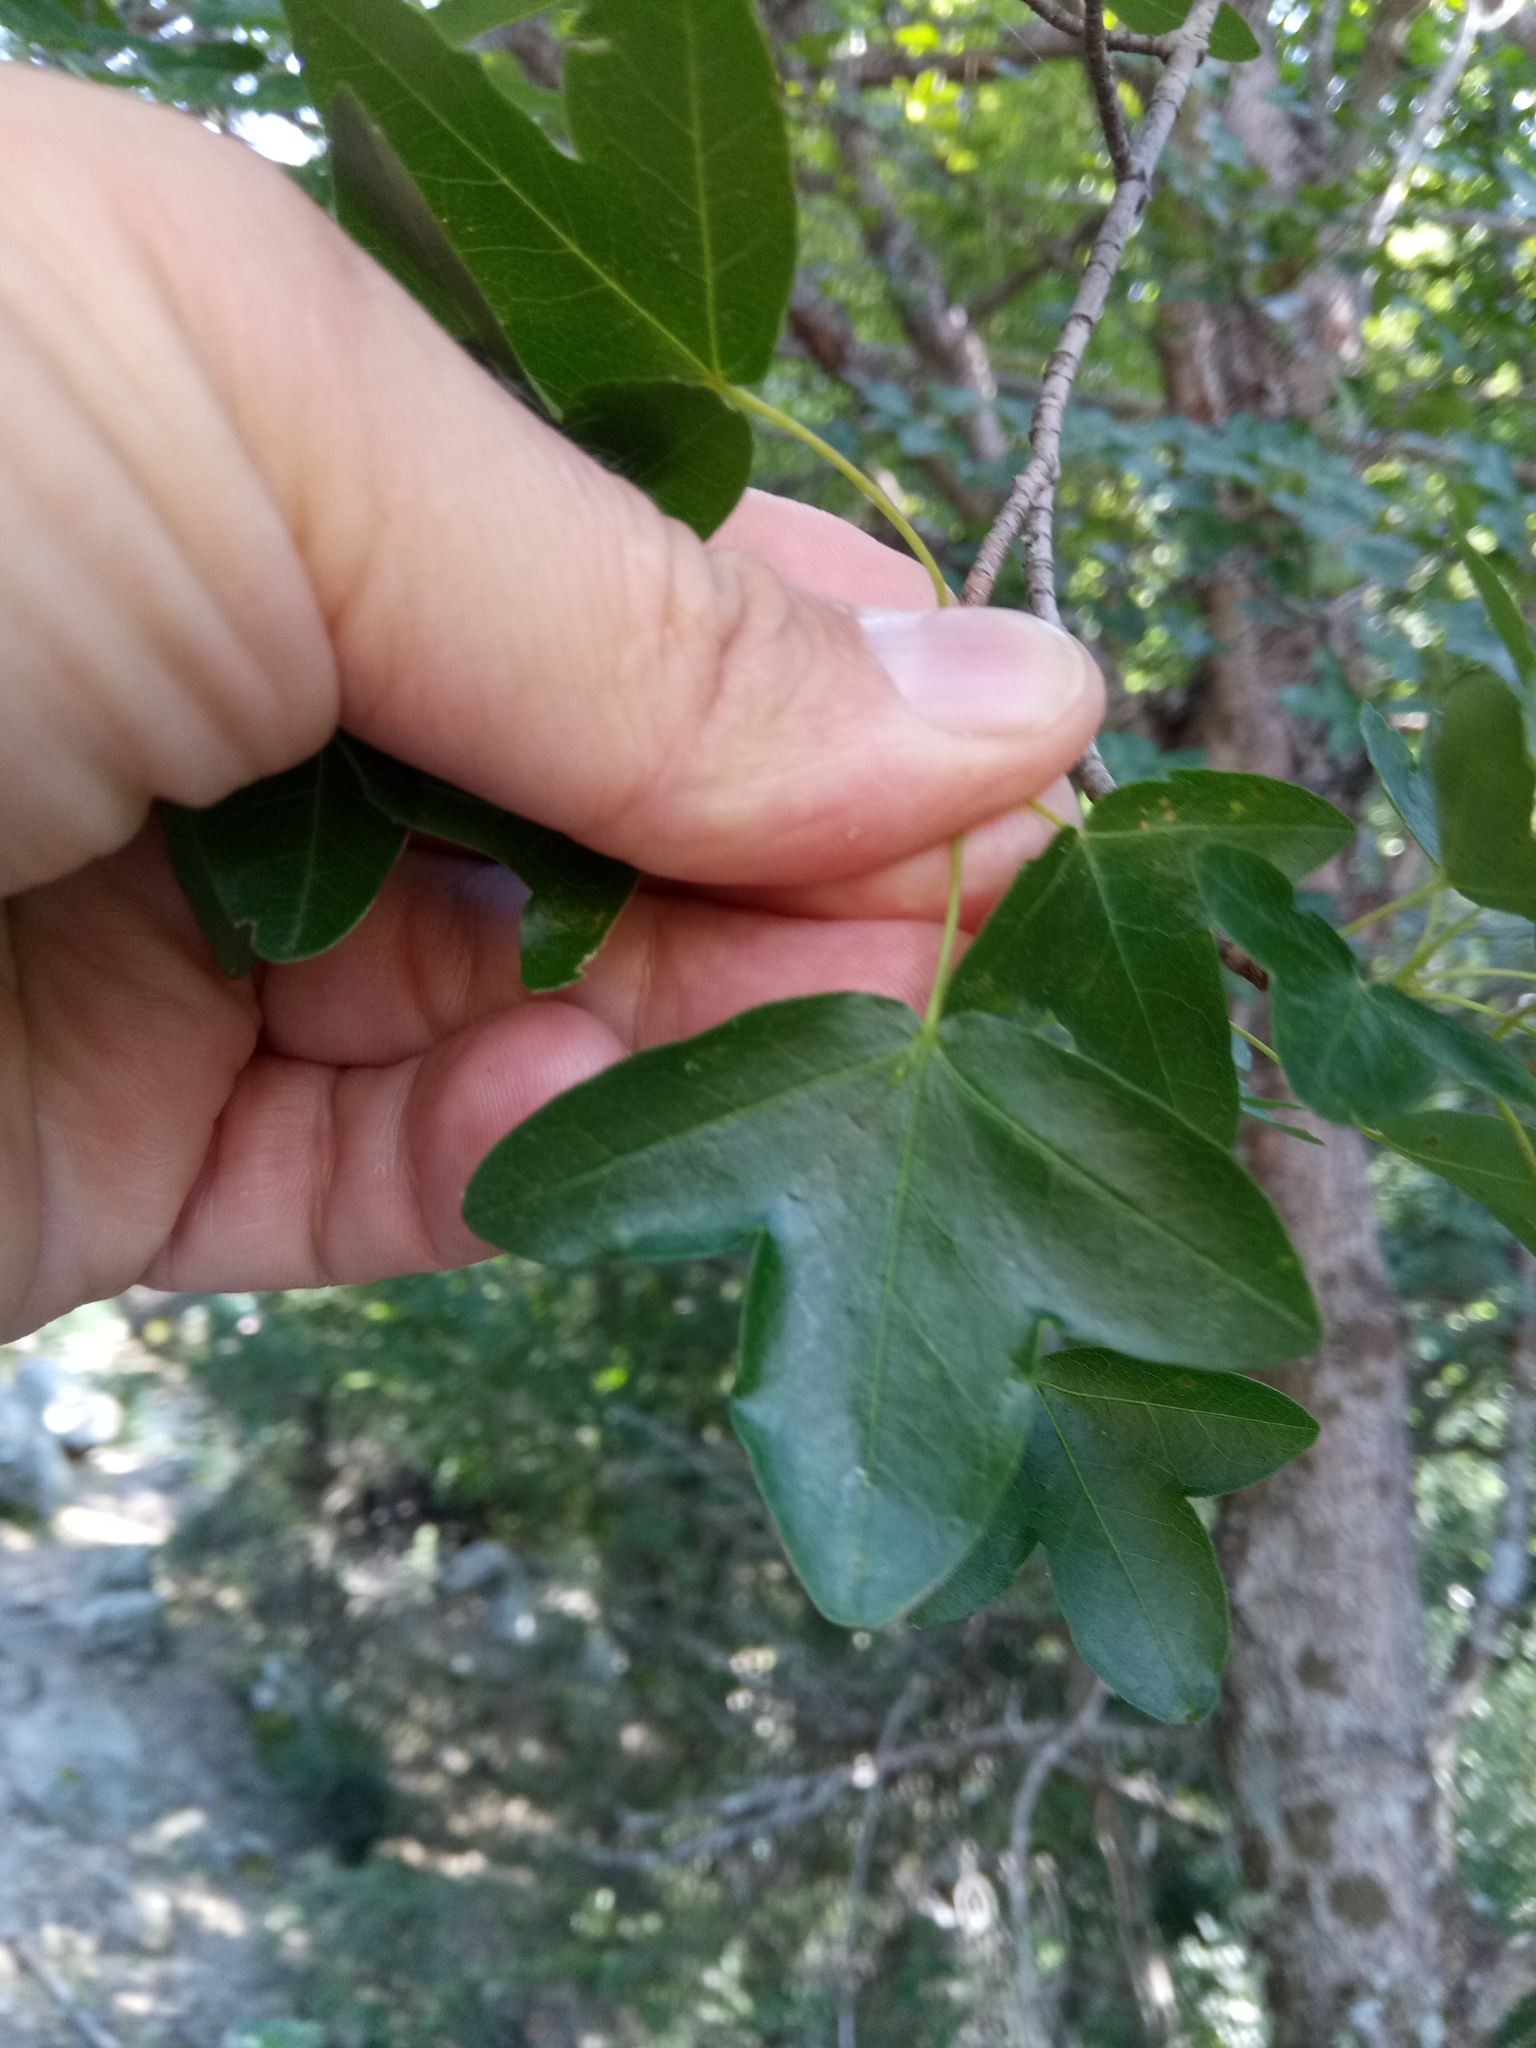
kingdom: Plantae
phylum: Tracheophyta
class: Magnoliopsida
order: Sapindales
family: Sapindaceae
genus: Acer
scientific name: Acer monspessulanum
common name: Montpellier maple
